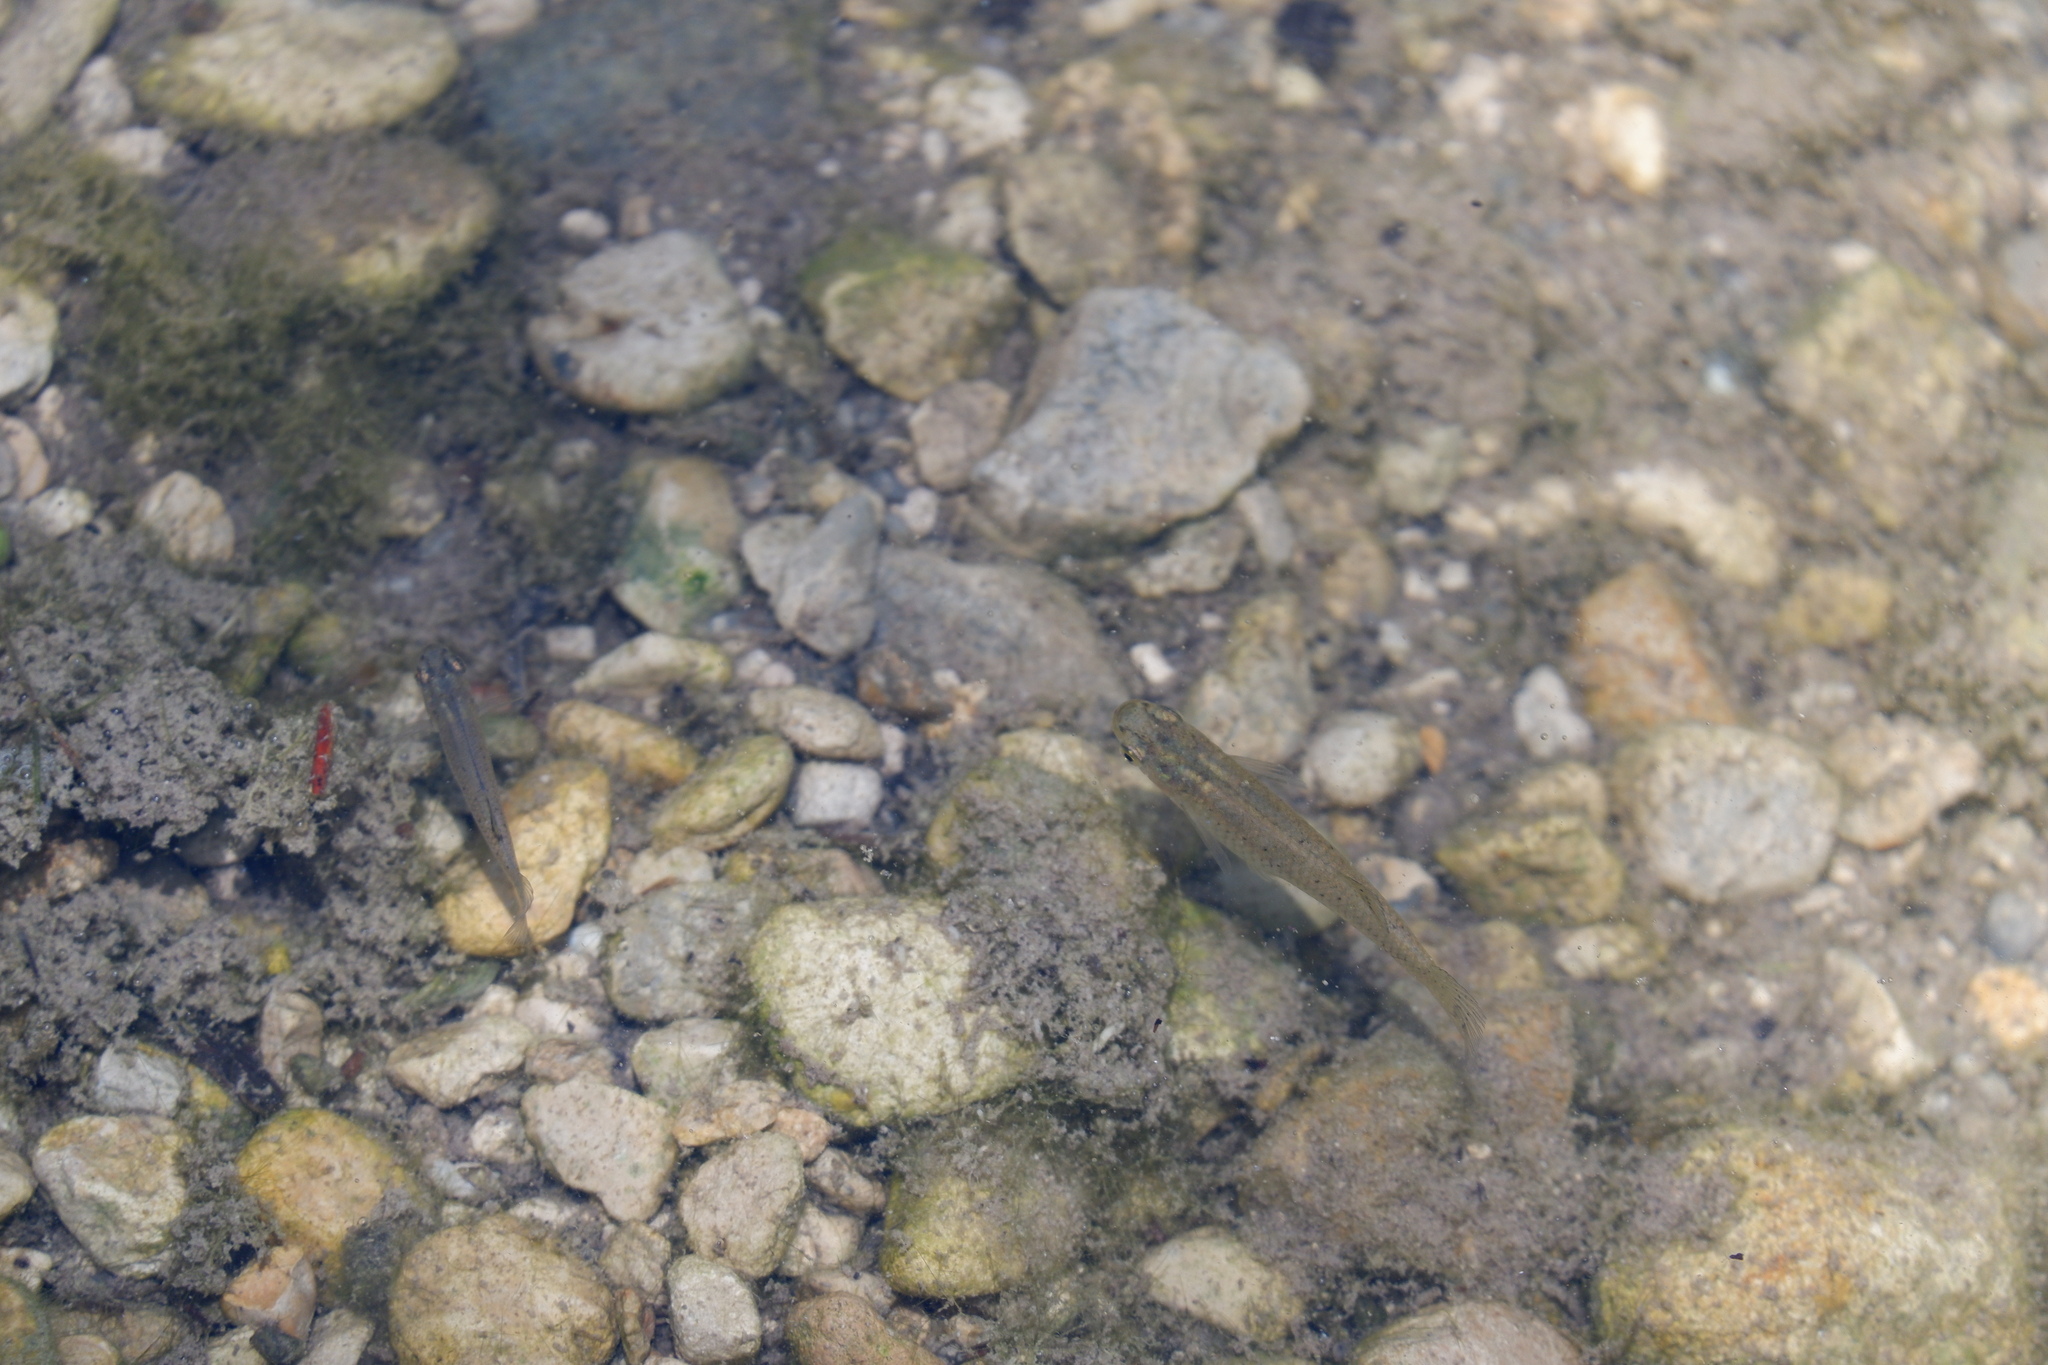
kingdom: Animalia
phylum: Chordata
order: Cyprinodontiformes
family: Poeciliidae
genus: Gambusia
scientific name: Gambusia affinis
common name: Mosquitofish
